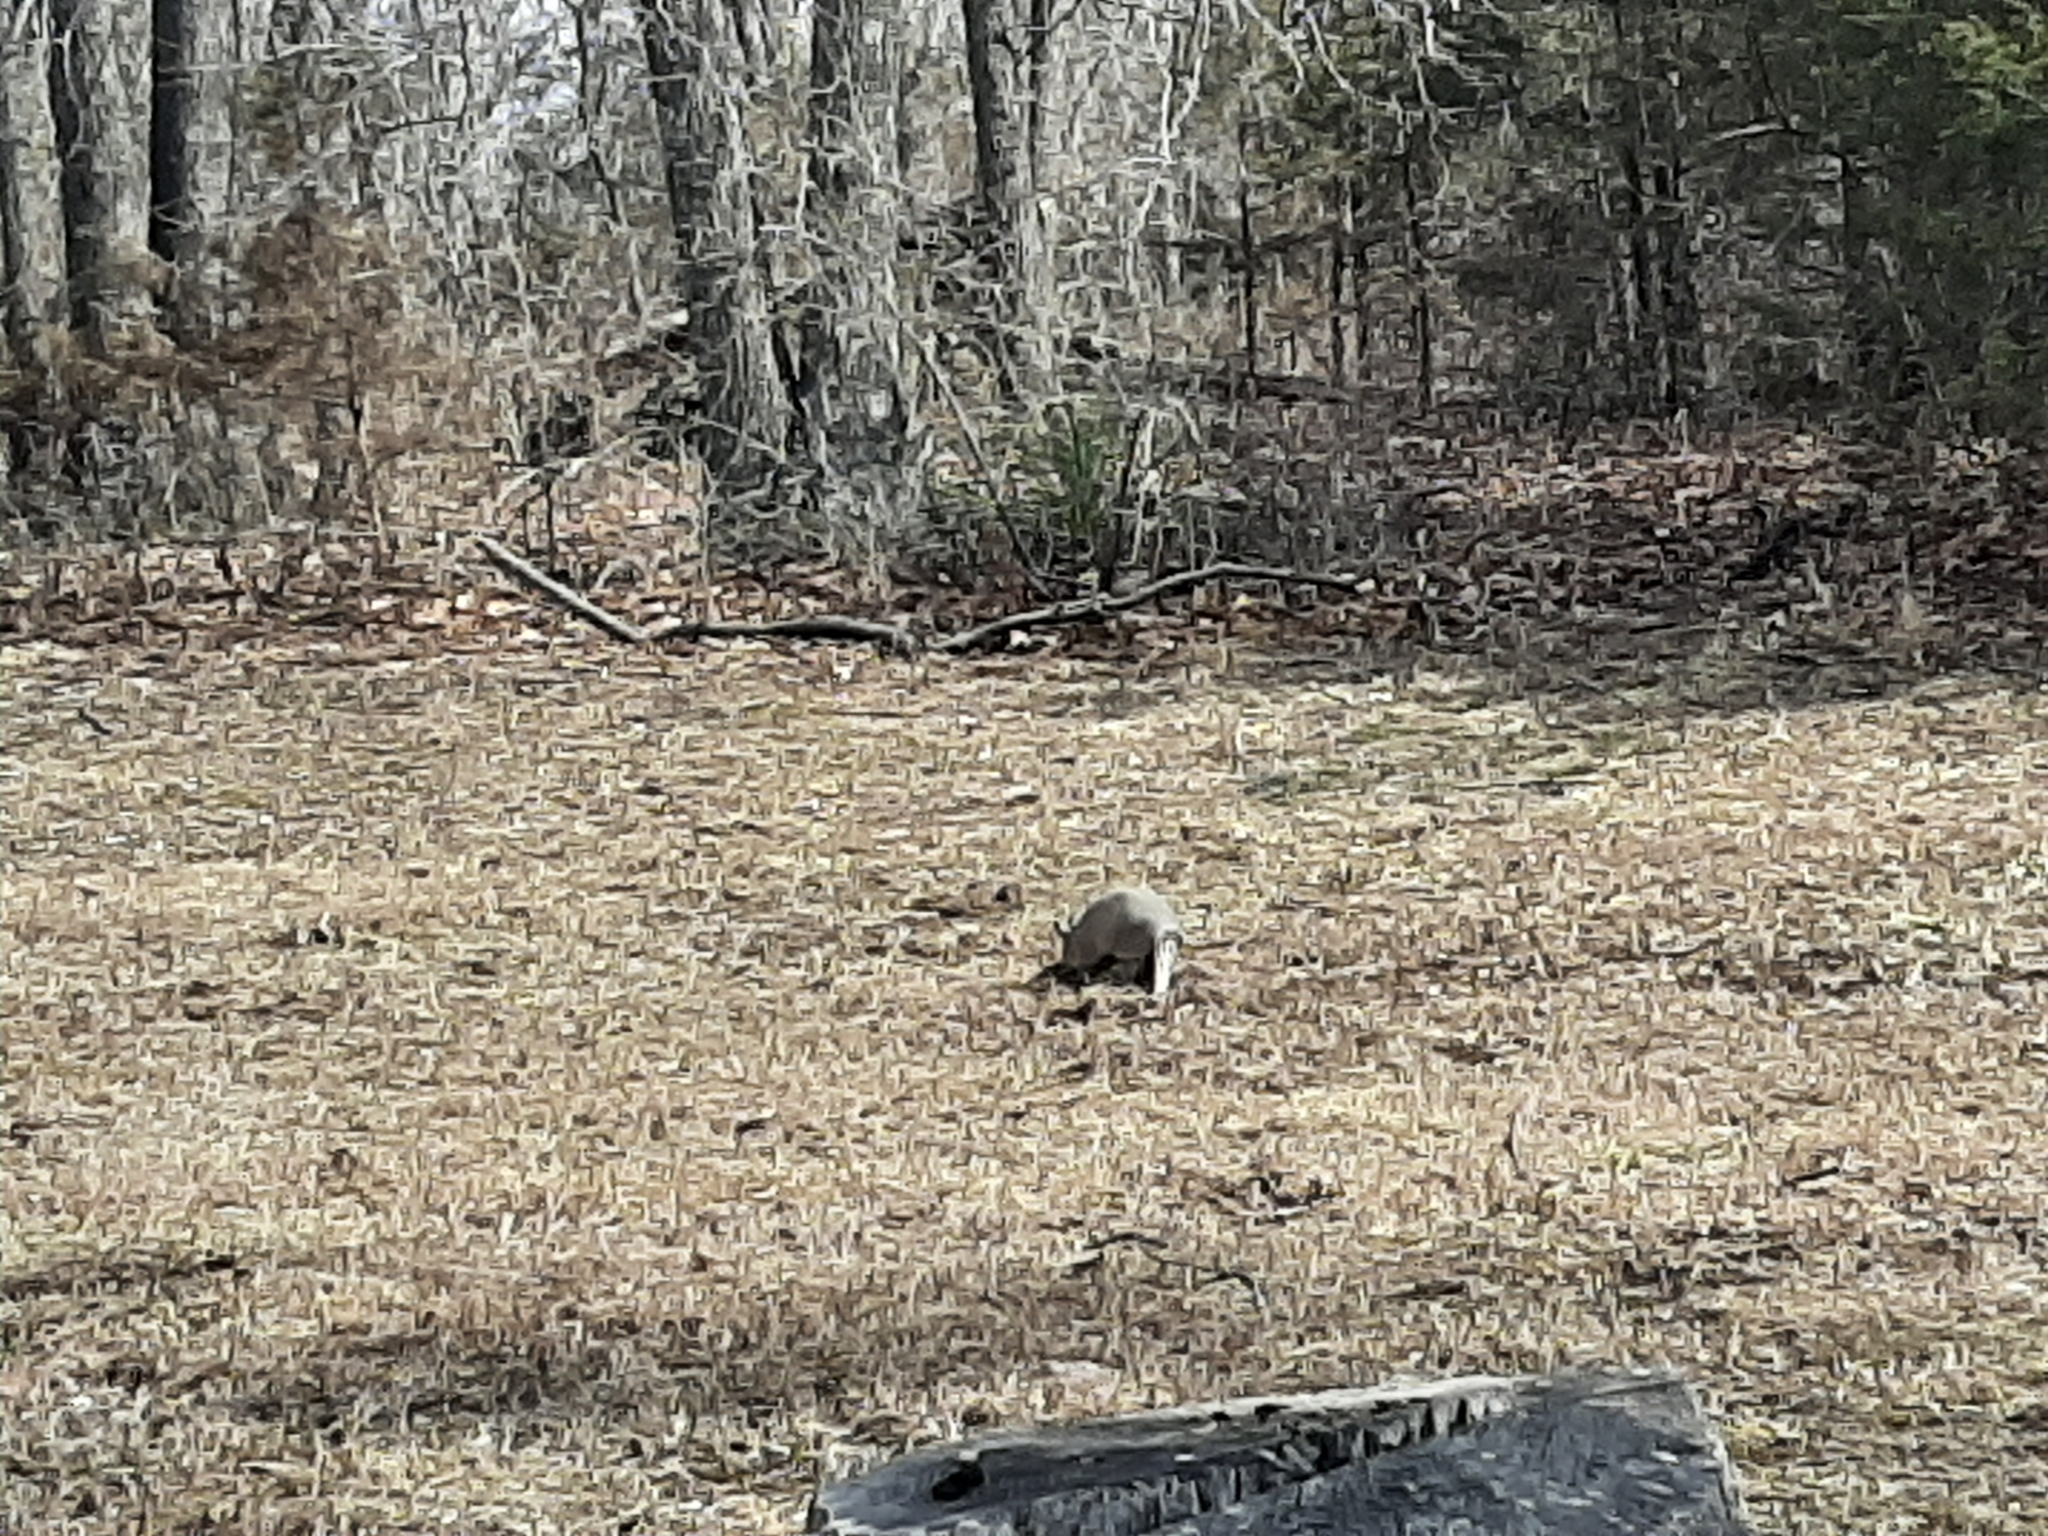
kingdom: Animalia
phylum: Chordata
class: Mammalia
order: Cingulata
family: Dasypodidae
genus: Dasypus
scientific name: Dasypus novemcinctus
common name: Nine-banded armadillo
